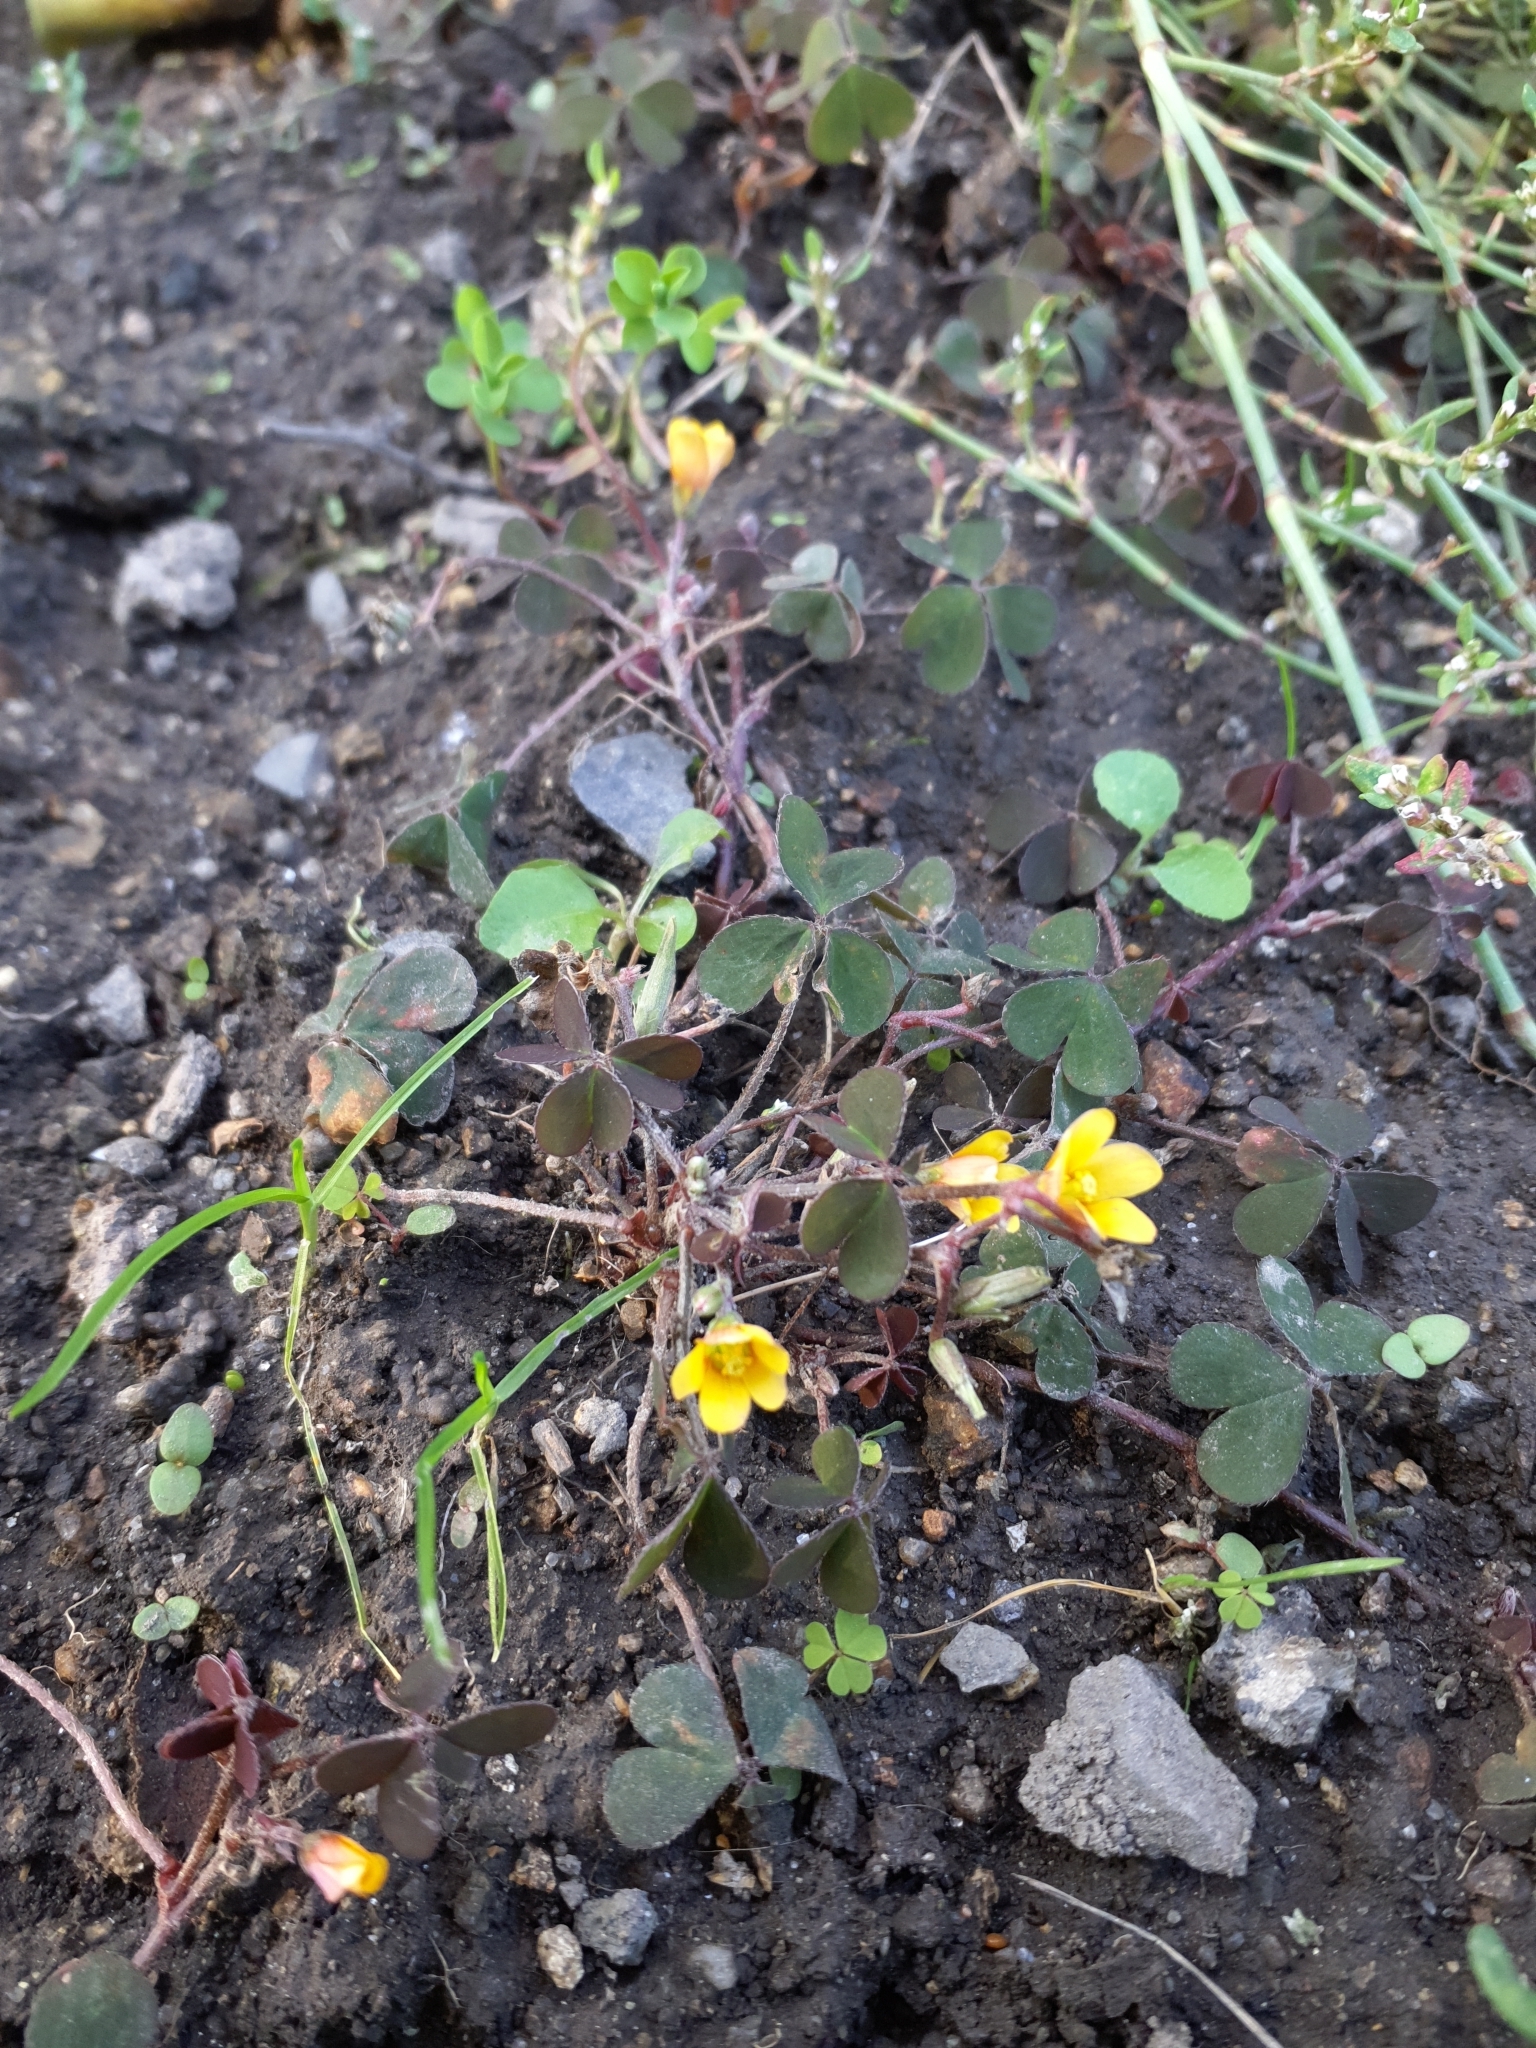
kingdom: Plantae
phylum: Tracheophyta
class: Magnoliopsida
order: Oxalidales
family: Oxalidaceae
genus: Oxalis
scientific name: Oxalis corniculata
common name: Procumbent yellow-sorrel
